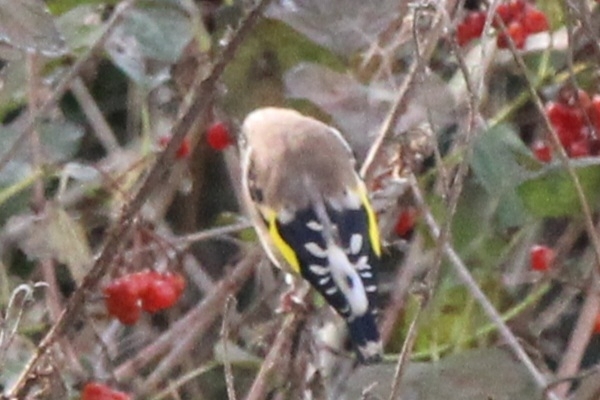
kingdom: Animalia
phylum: Chordata
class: Aves
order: Passeriformes
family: Fringillidae
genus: Carduelis
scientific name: Carduelis carduelis
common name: European goldfinch
